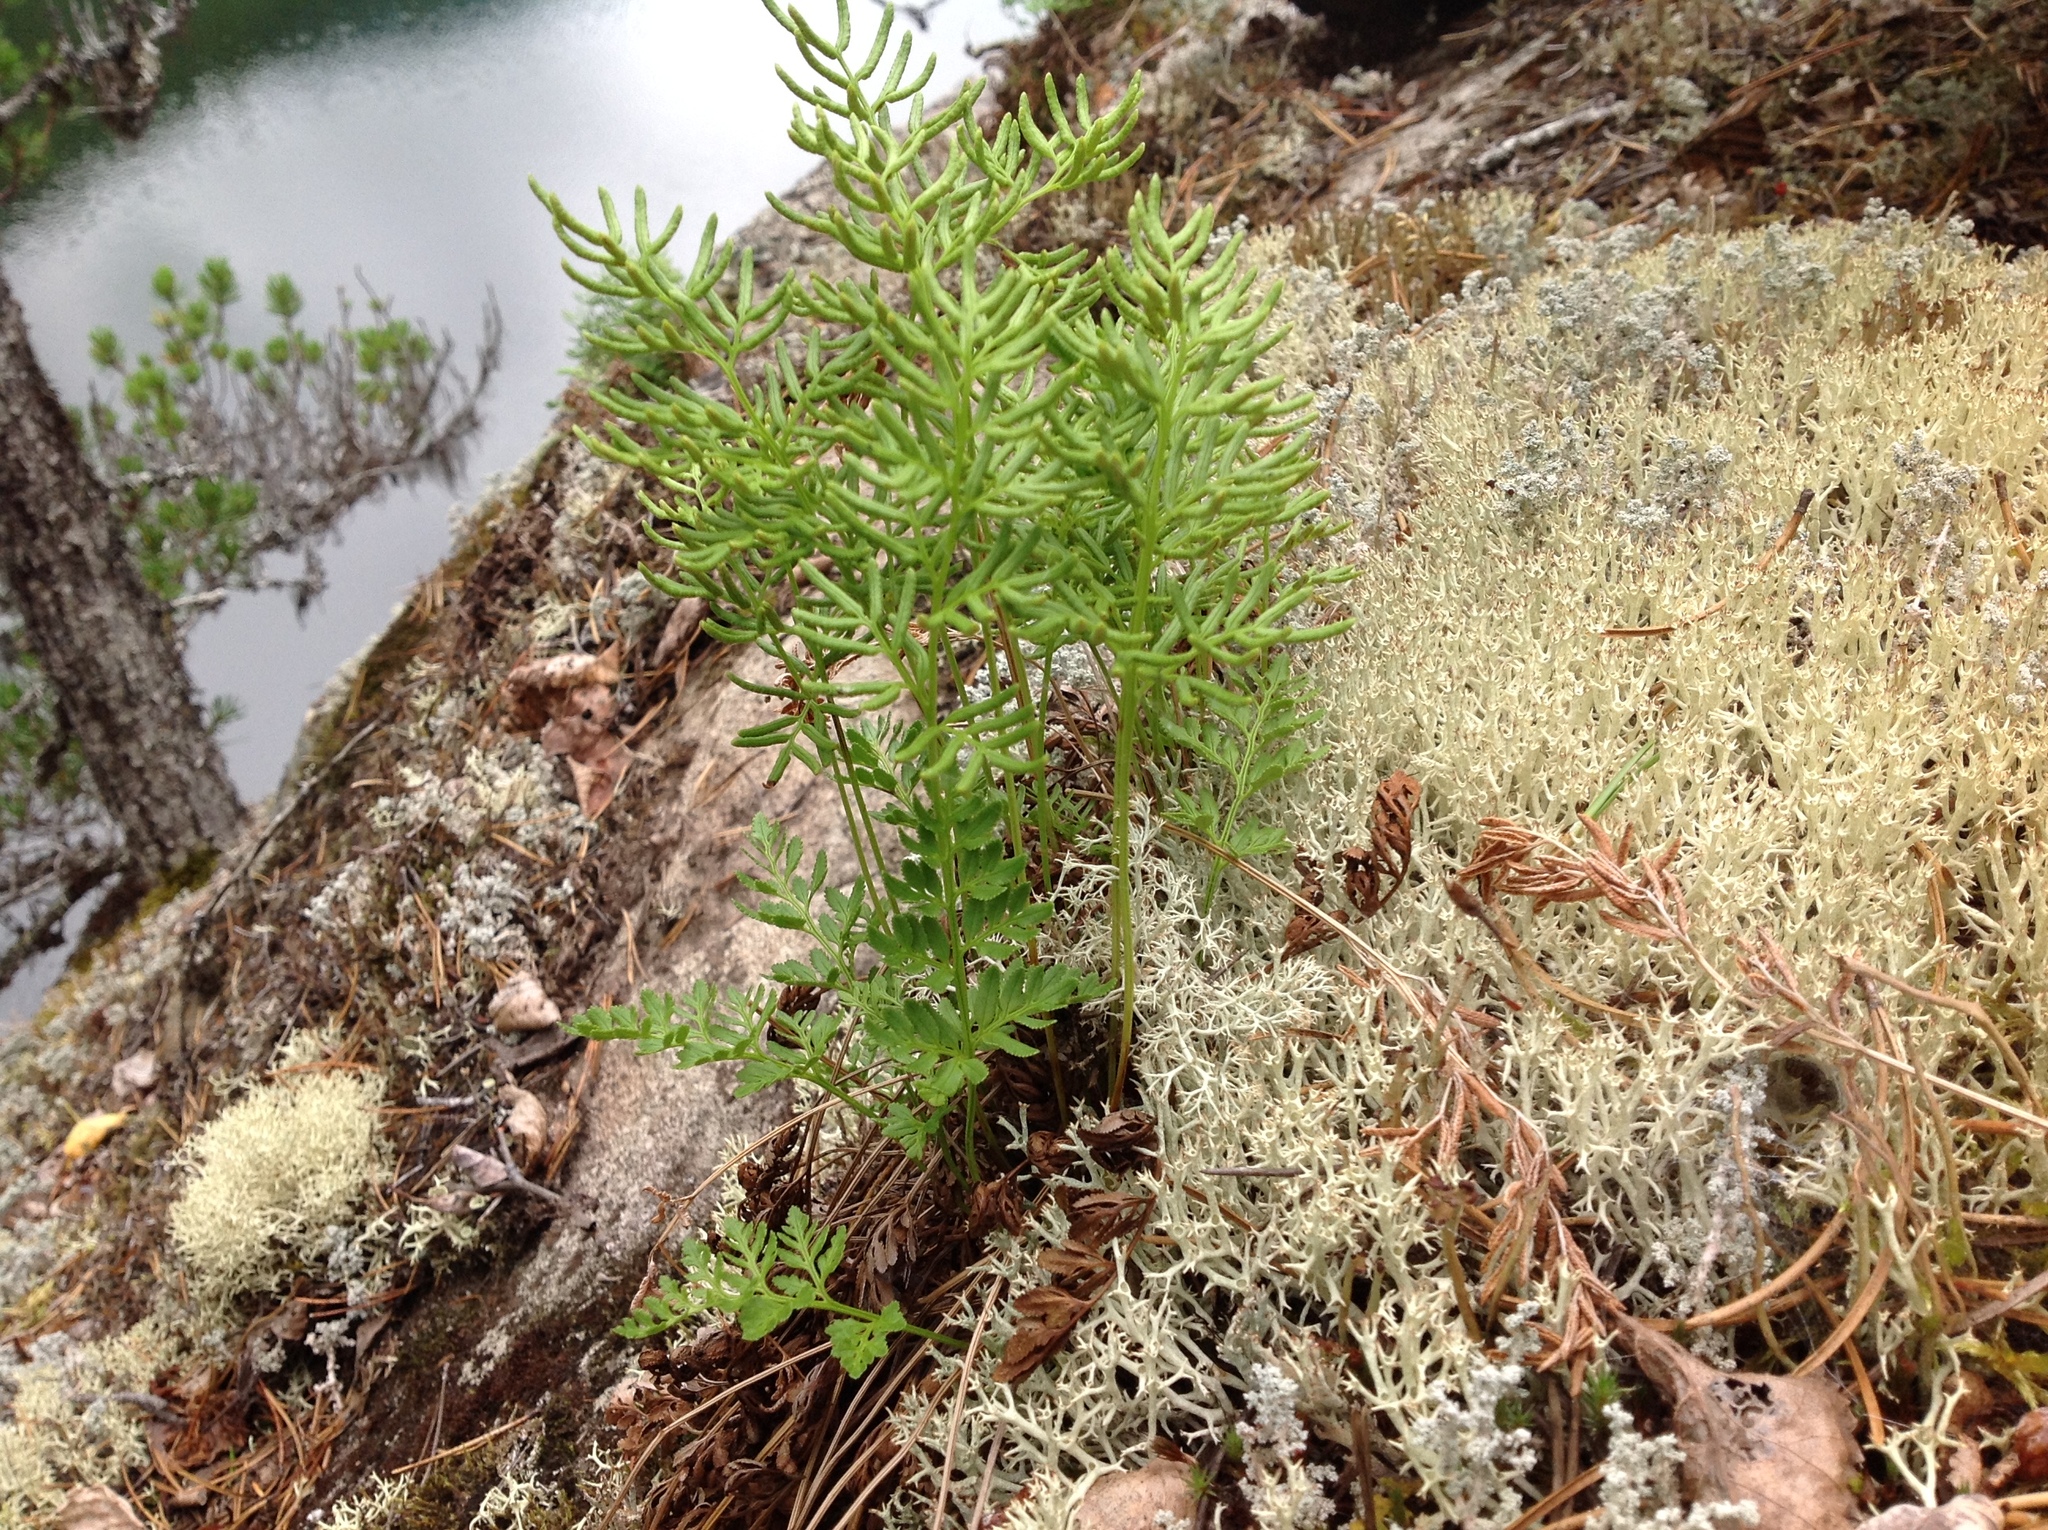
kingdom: Plantae
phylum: Tracheophyta
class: Polypodiopsida
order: Polypodiales
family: Pteridaceae
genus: Cryptogramma
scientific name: Cryptogramma acrostichoides
